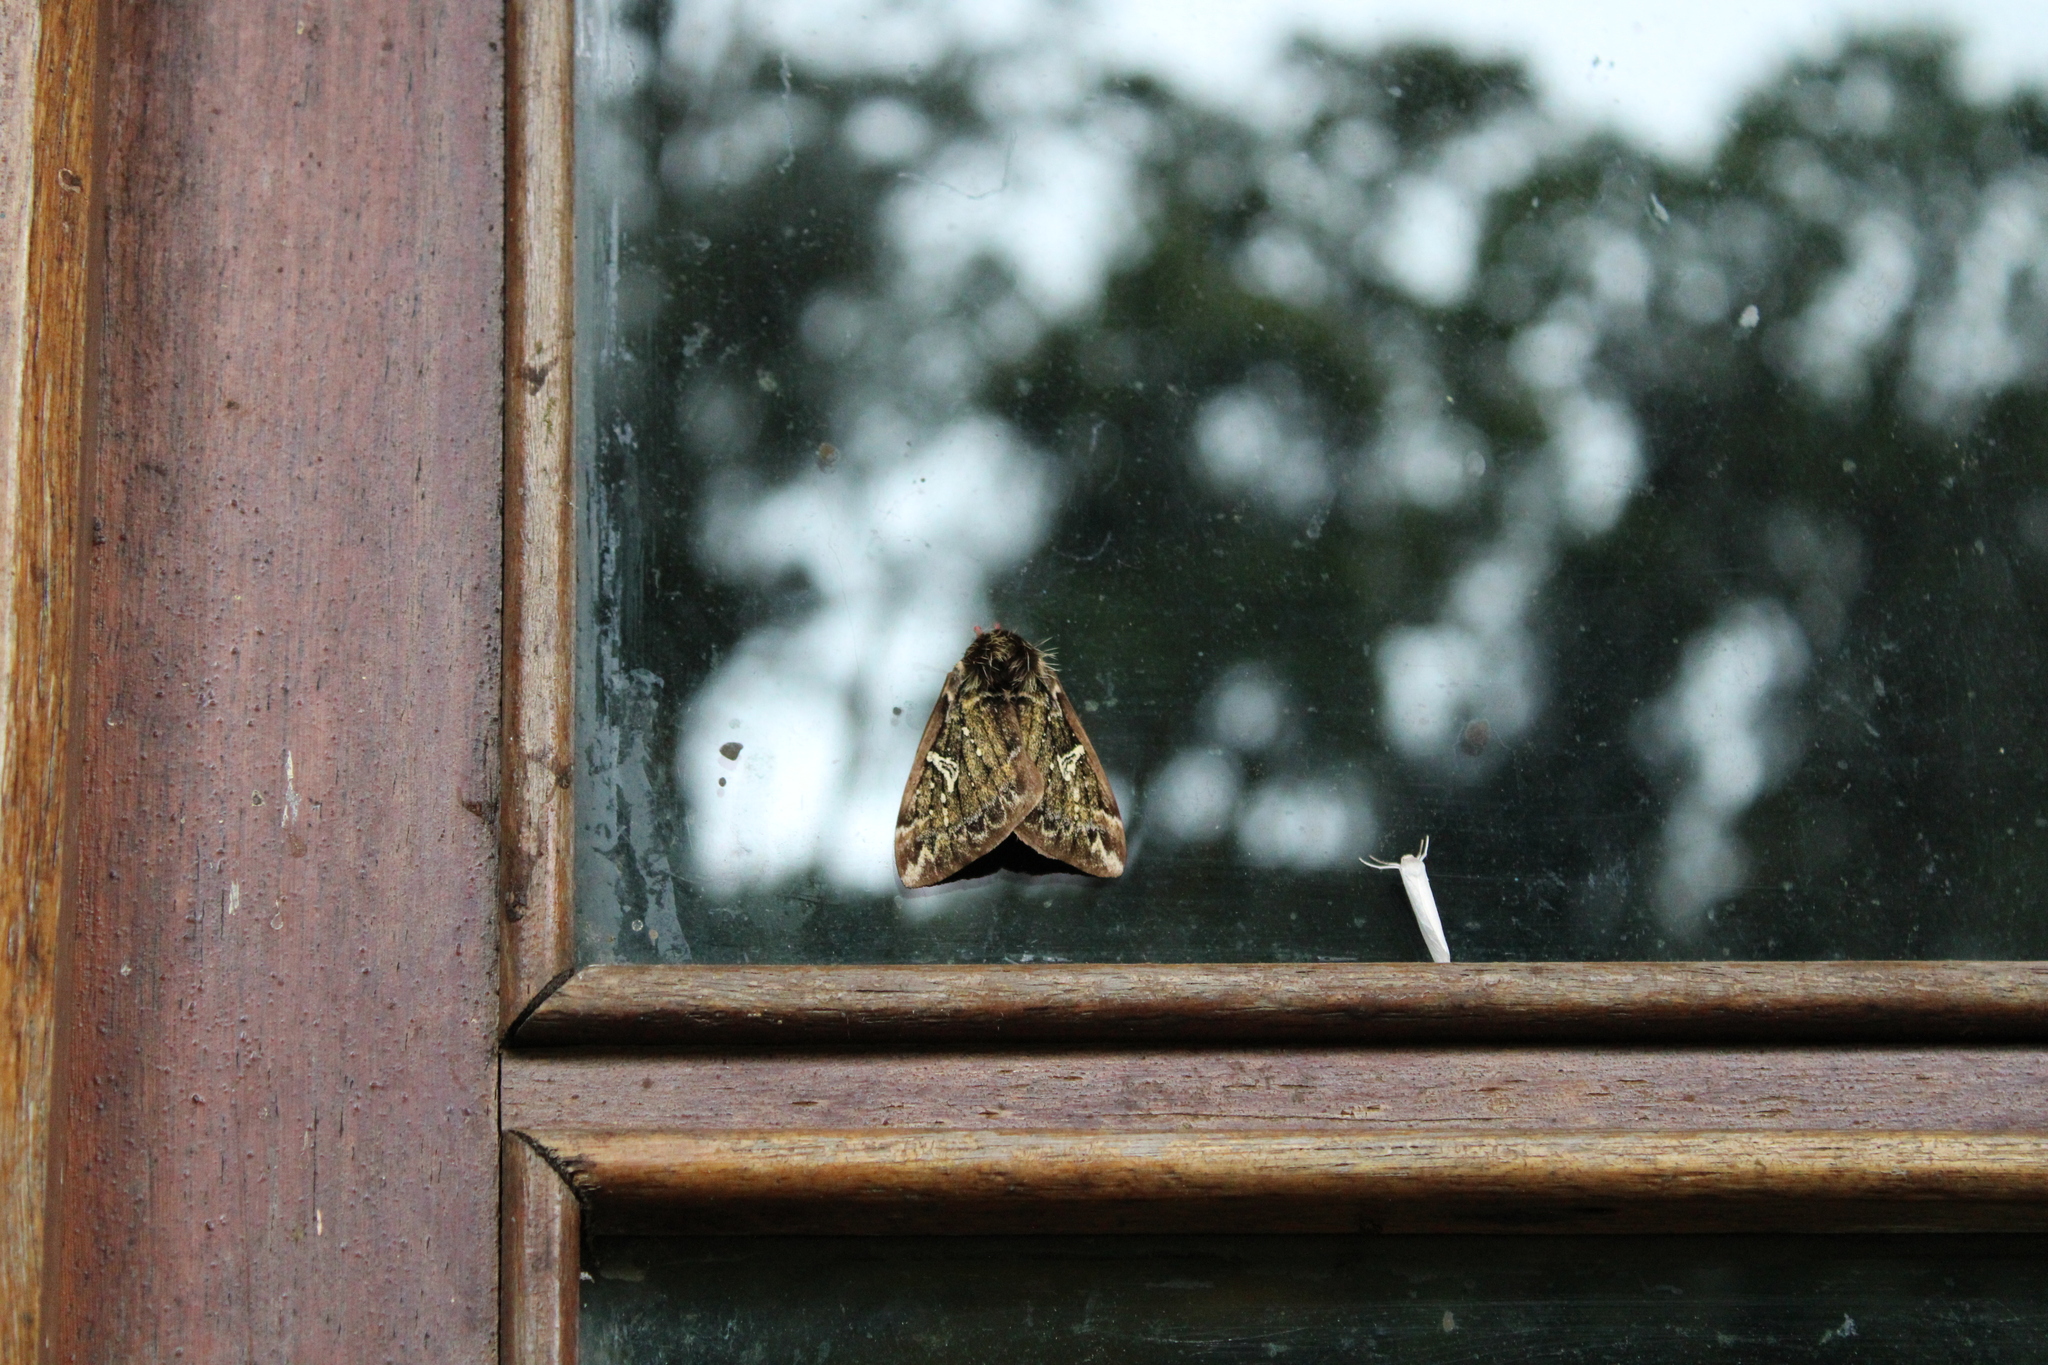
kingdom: Animalia
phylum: Arthropoda
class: Insecta
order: Lepidoptera
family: Saturniidae
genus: Dirphiopsis
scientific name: Dirphiopsis epiolina
